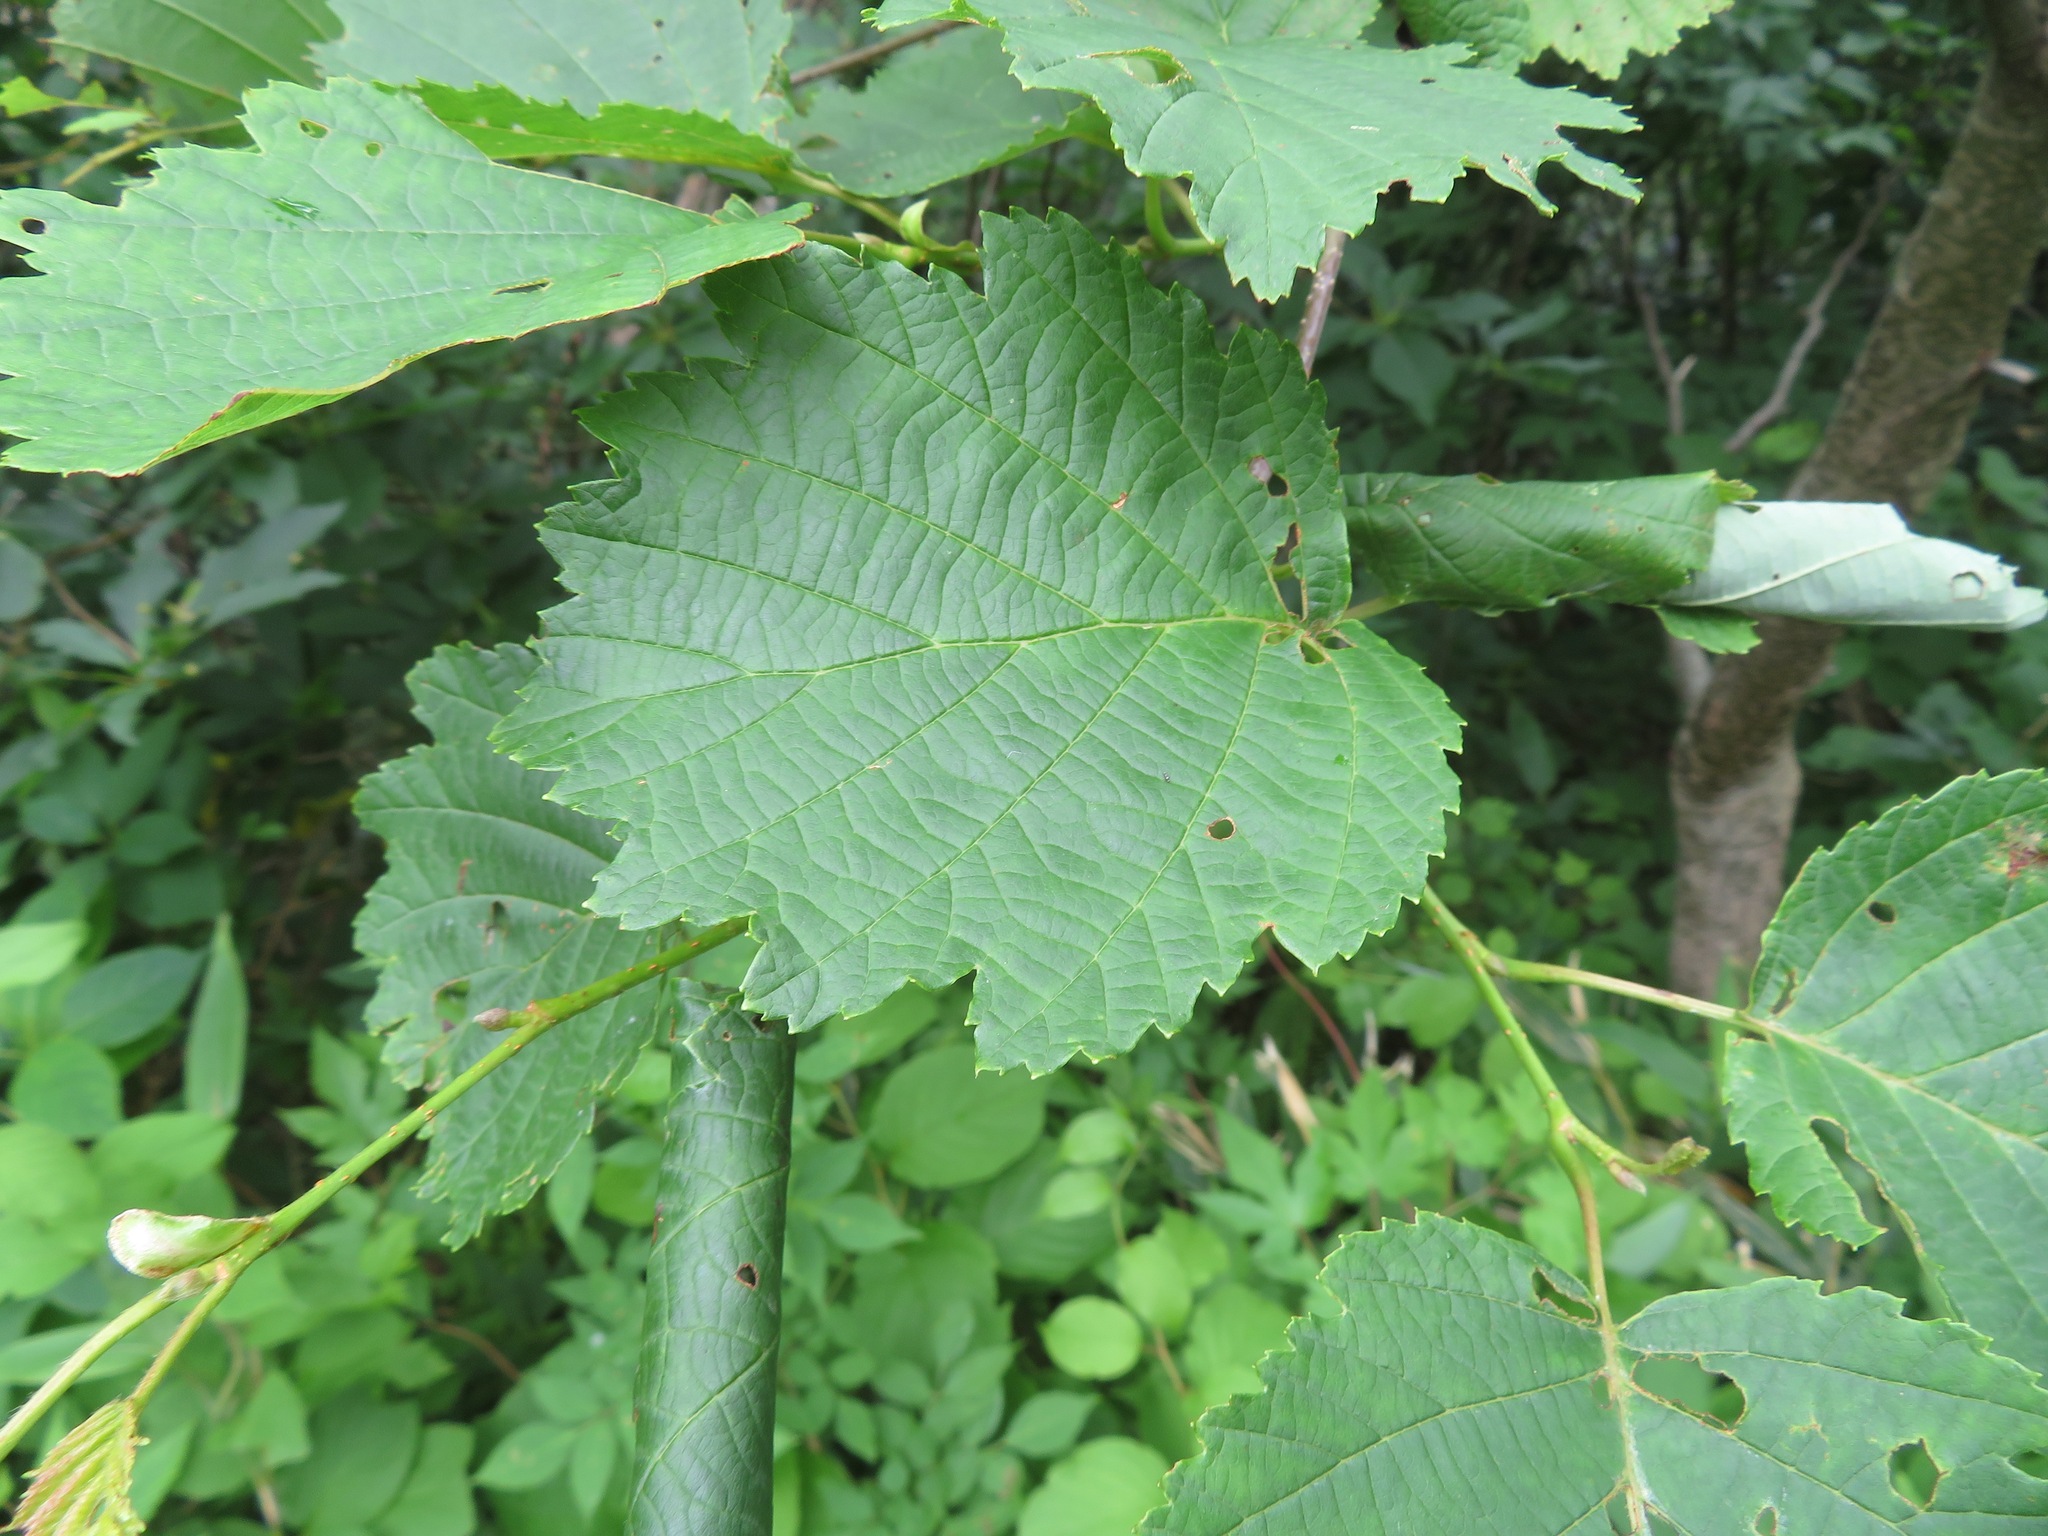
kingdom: Plantae
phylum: Tracheophyta
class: Magnoliopsida
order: Fagales
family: Betulaceae
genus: Alnus
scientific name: Alnus hirsuta
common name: Manchurian alder
